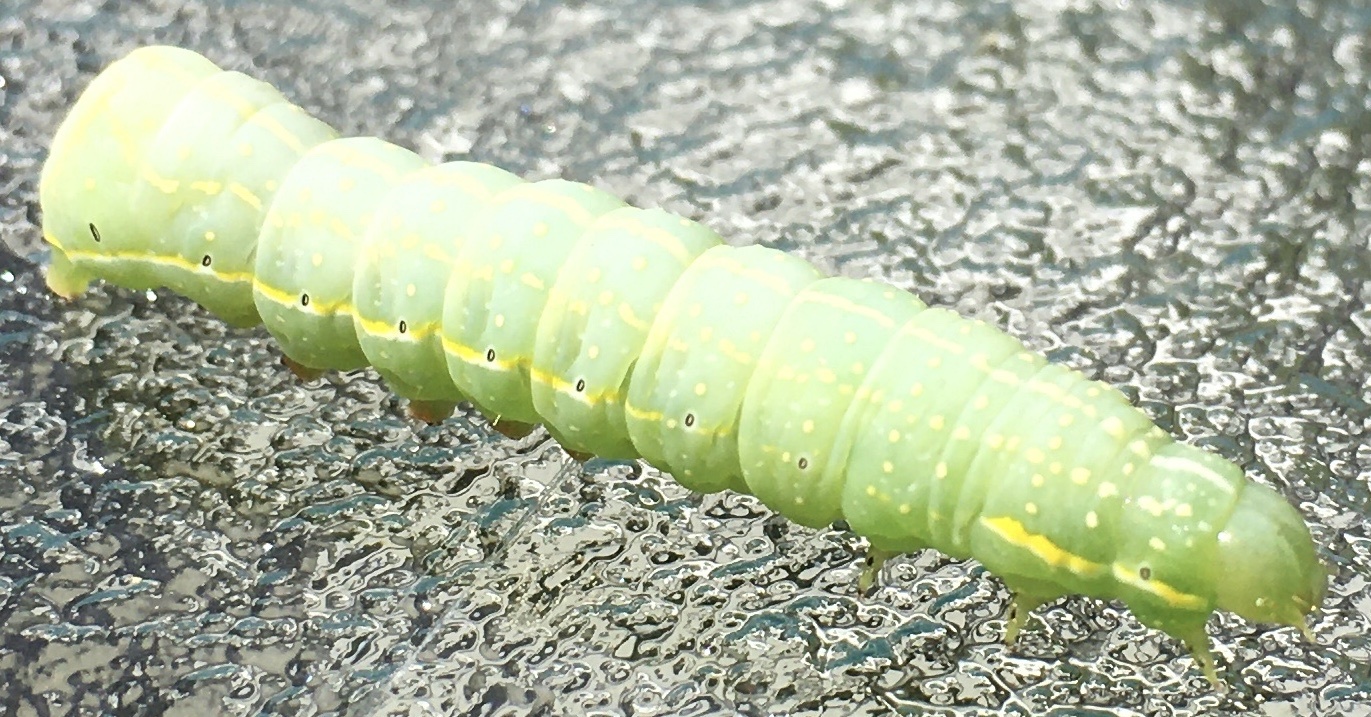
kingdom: Animalia
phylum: Arthropoda
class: Insecta
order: Lepidoptera
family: Noctuidae
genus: Amphipyra
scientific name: Amphipyra pyramidoides
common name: American copper underwing
